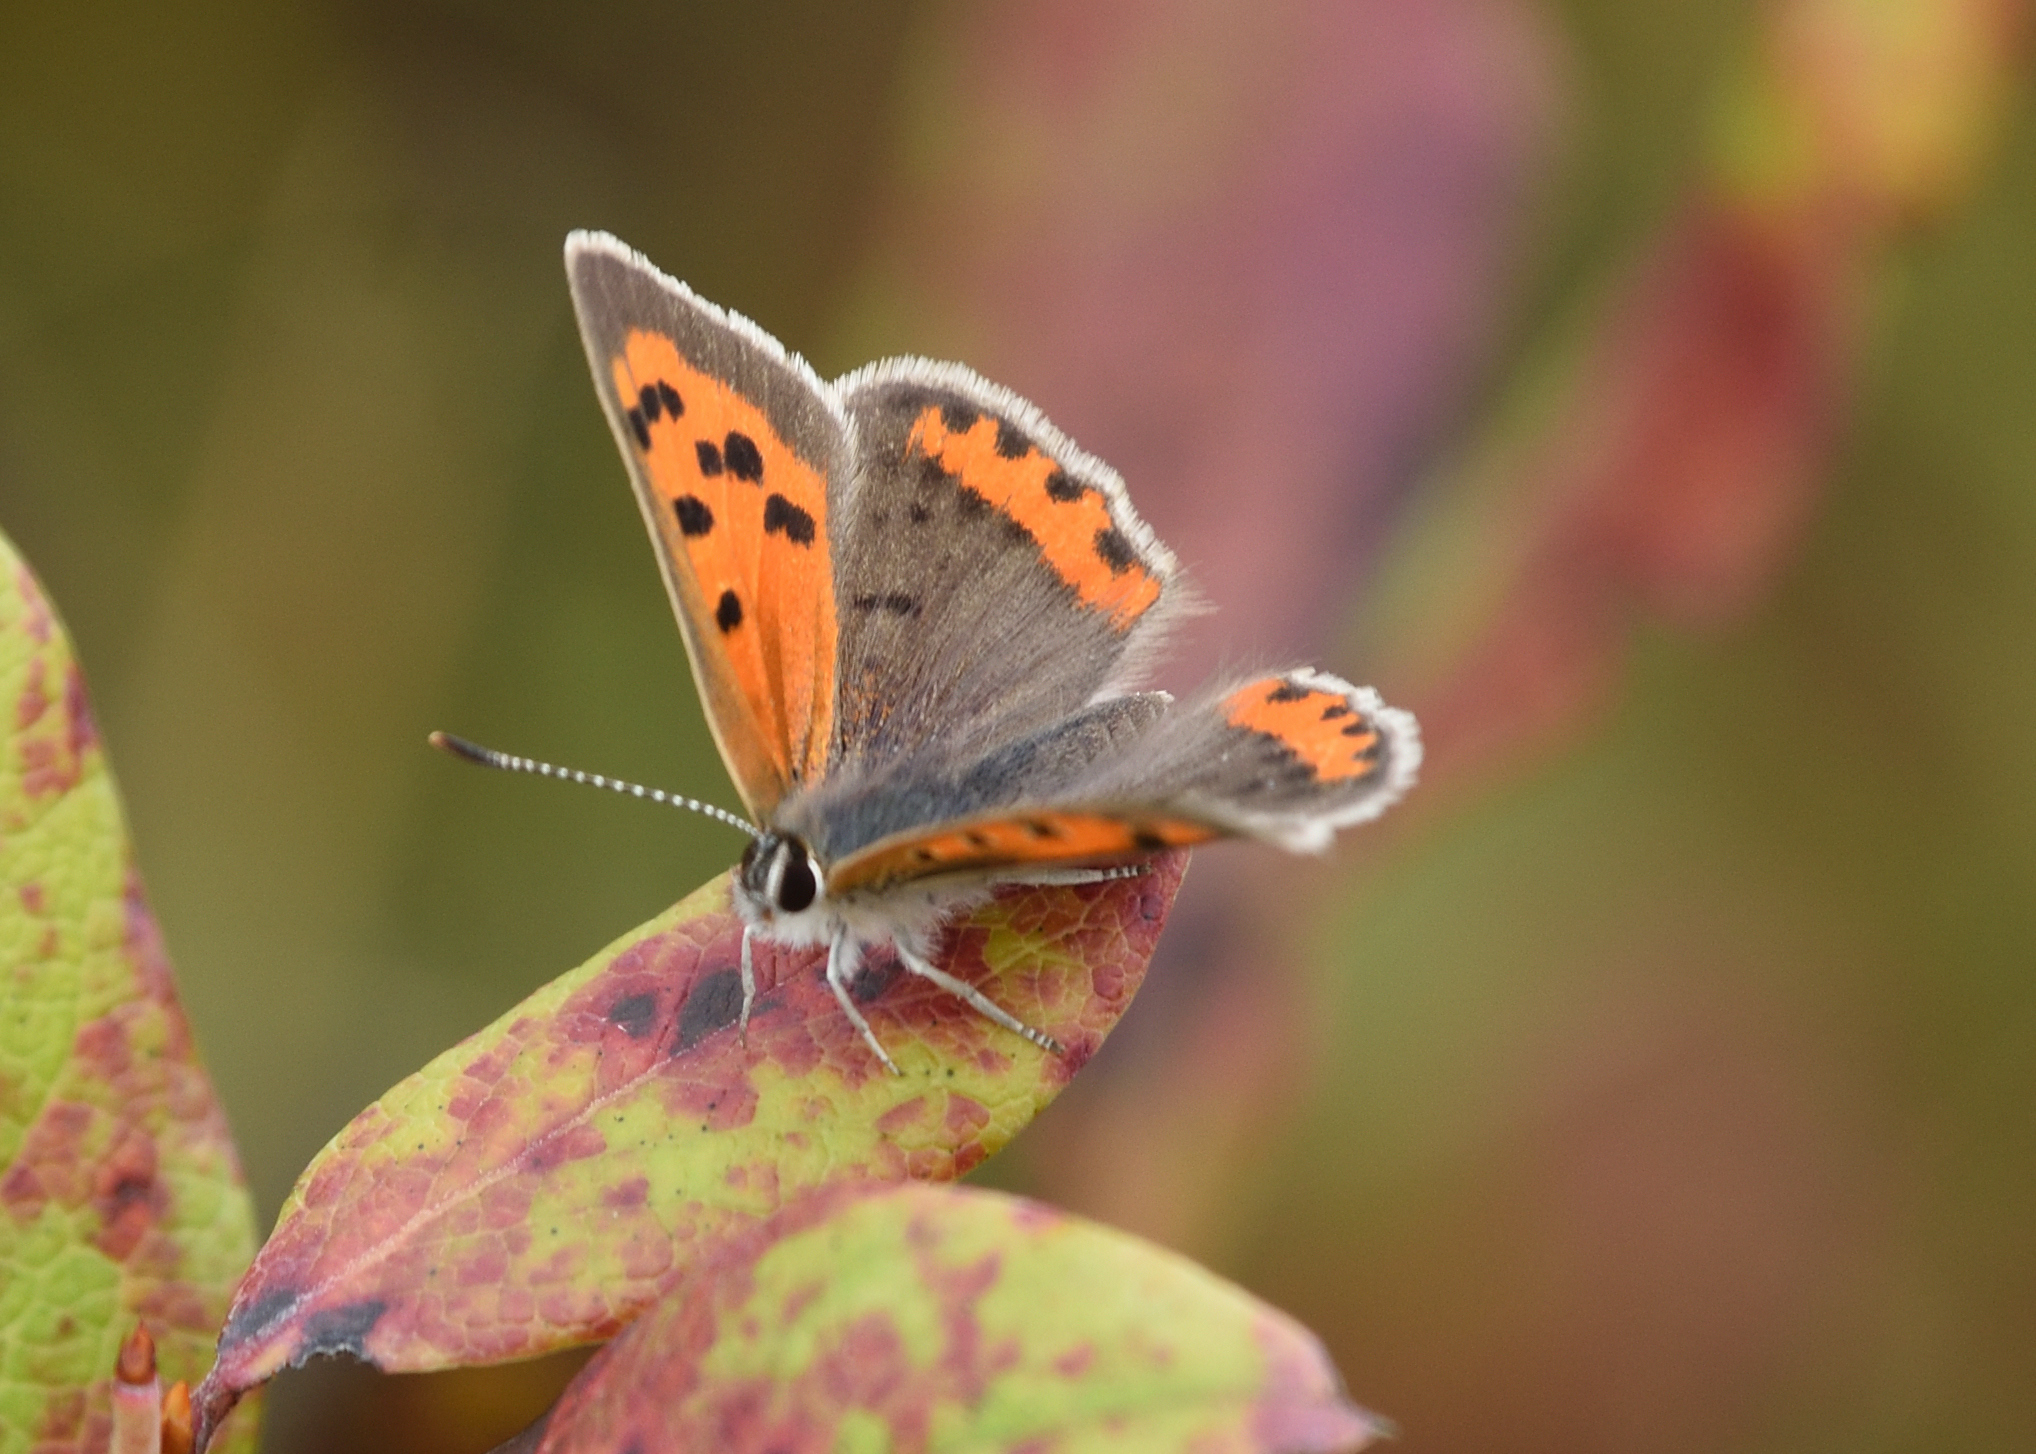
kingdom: Animalia
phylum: Arthropoda
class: Insecta
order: Lepidoptera
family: Lycaenidae
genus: Lycaena
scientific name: Lycaena hypophlaeas
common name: American copper
